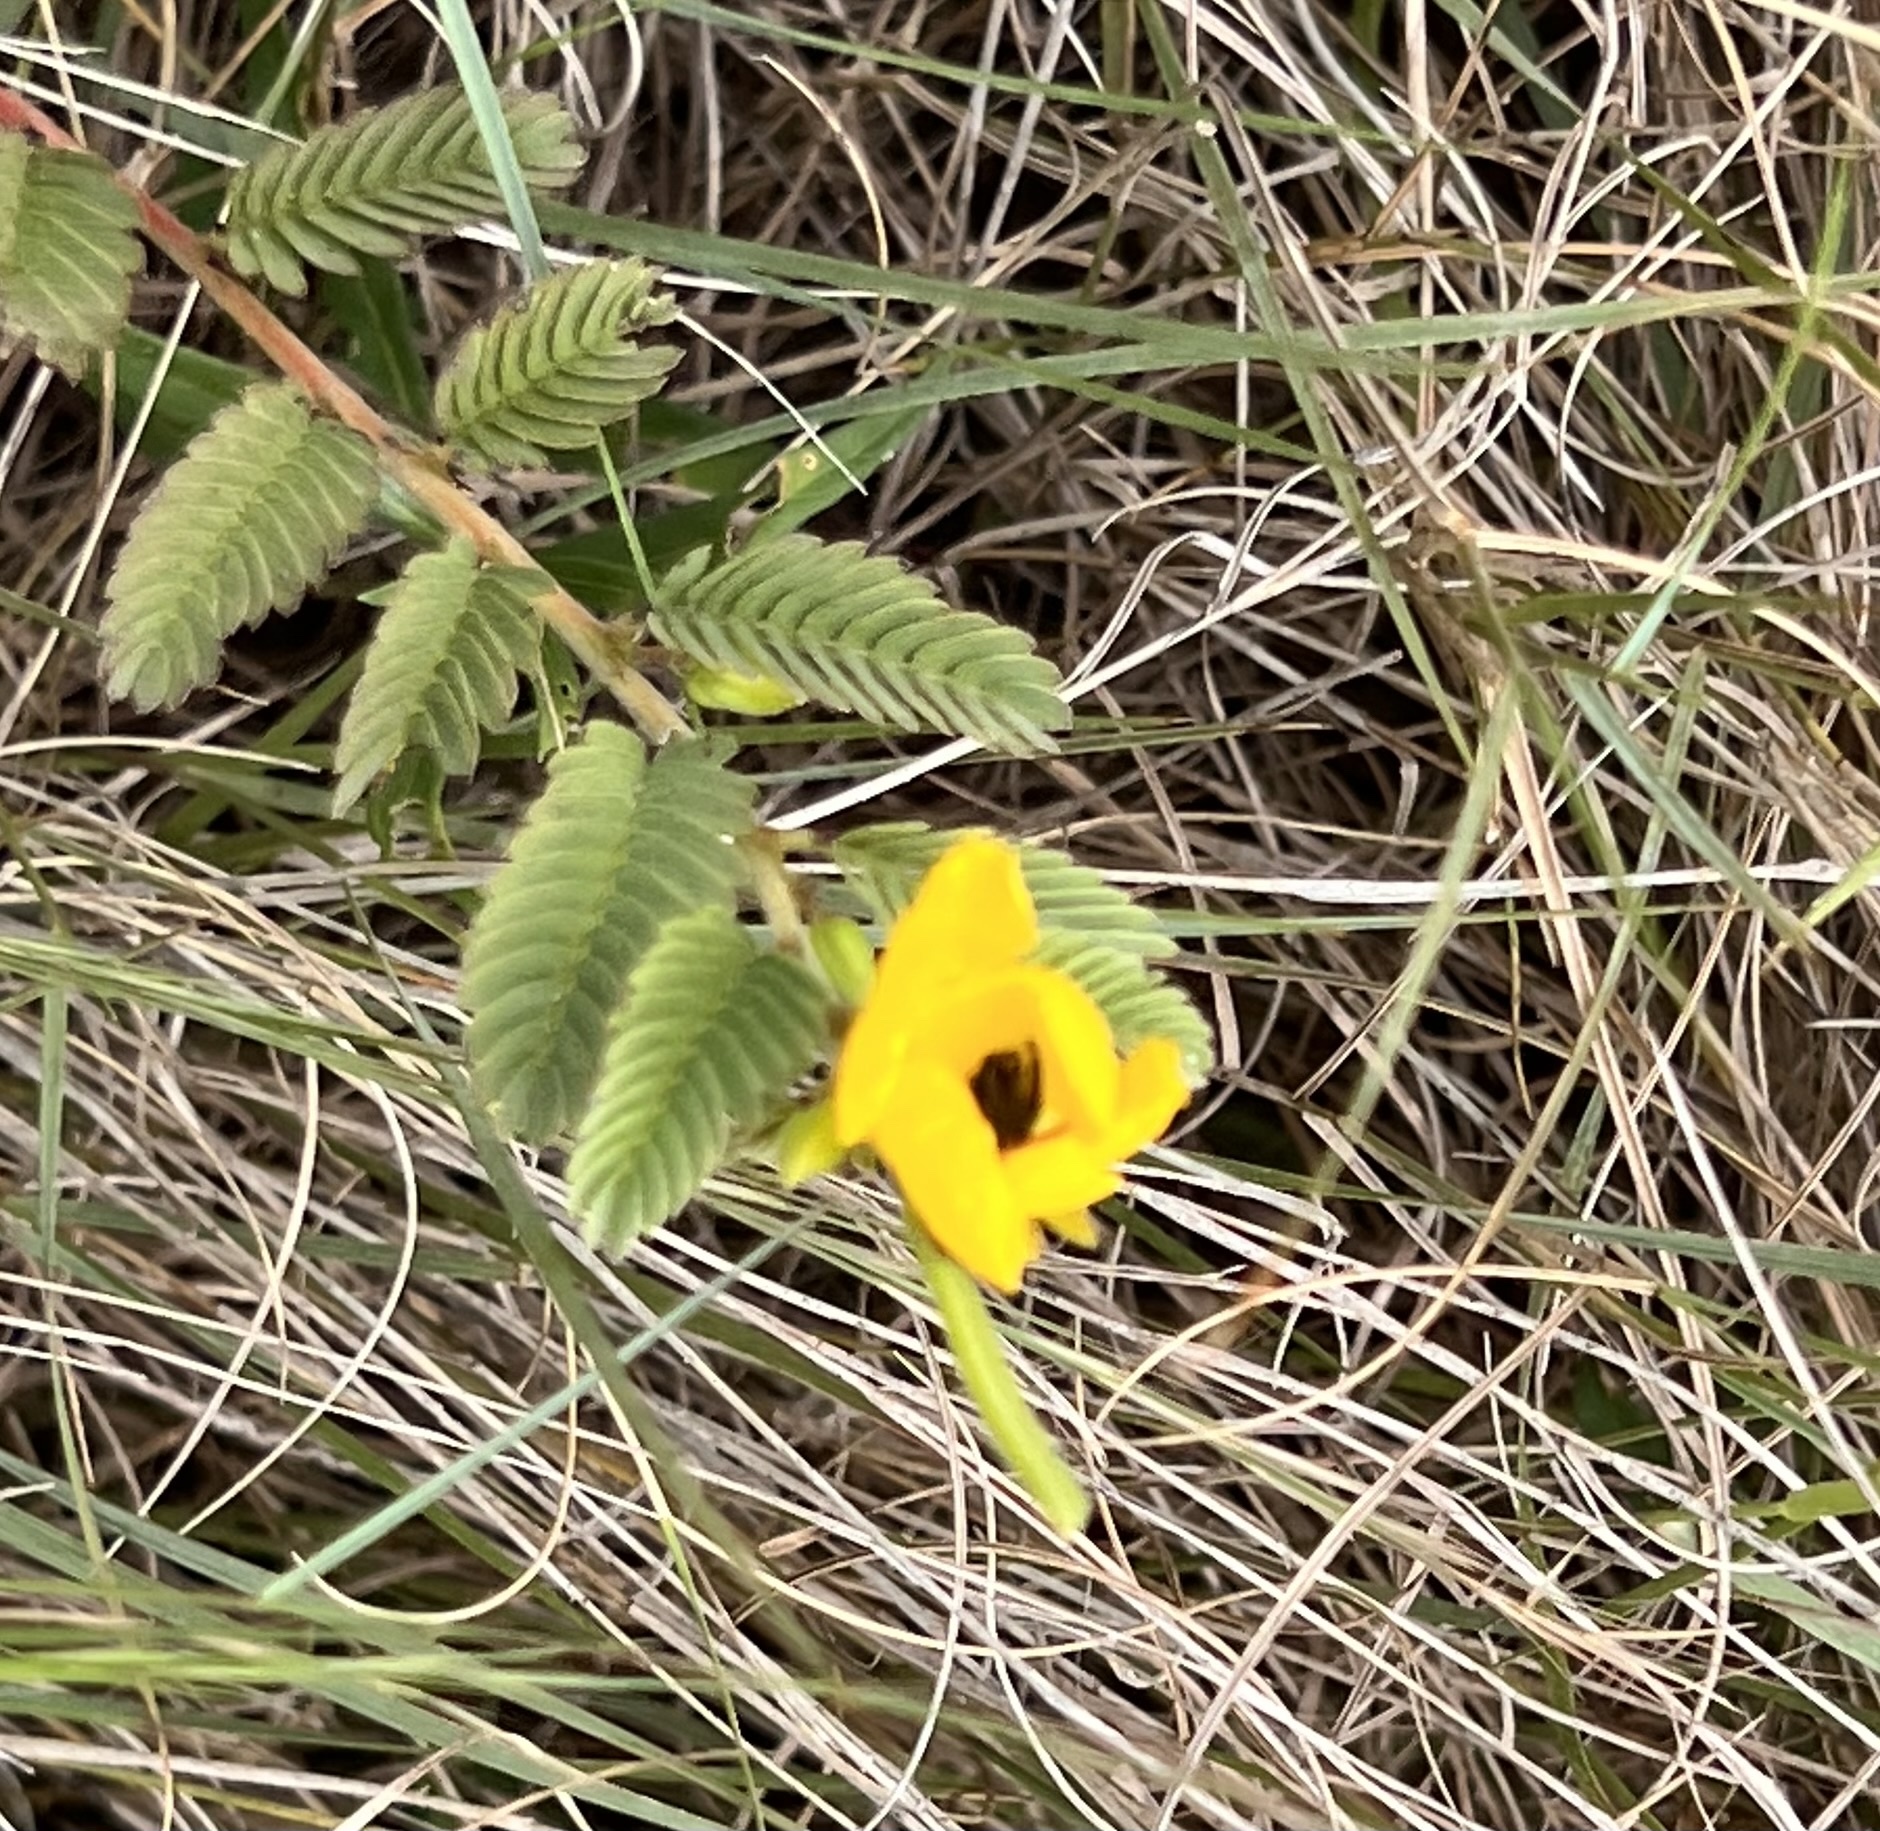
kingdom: Plantae
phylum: Tracheophyta
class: Magnoliopsida
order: Fabales
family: Fabaceae
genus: Chamaecrista
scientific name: Chamaecrista fasciculata
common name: Golden cassia
